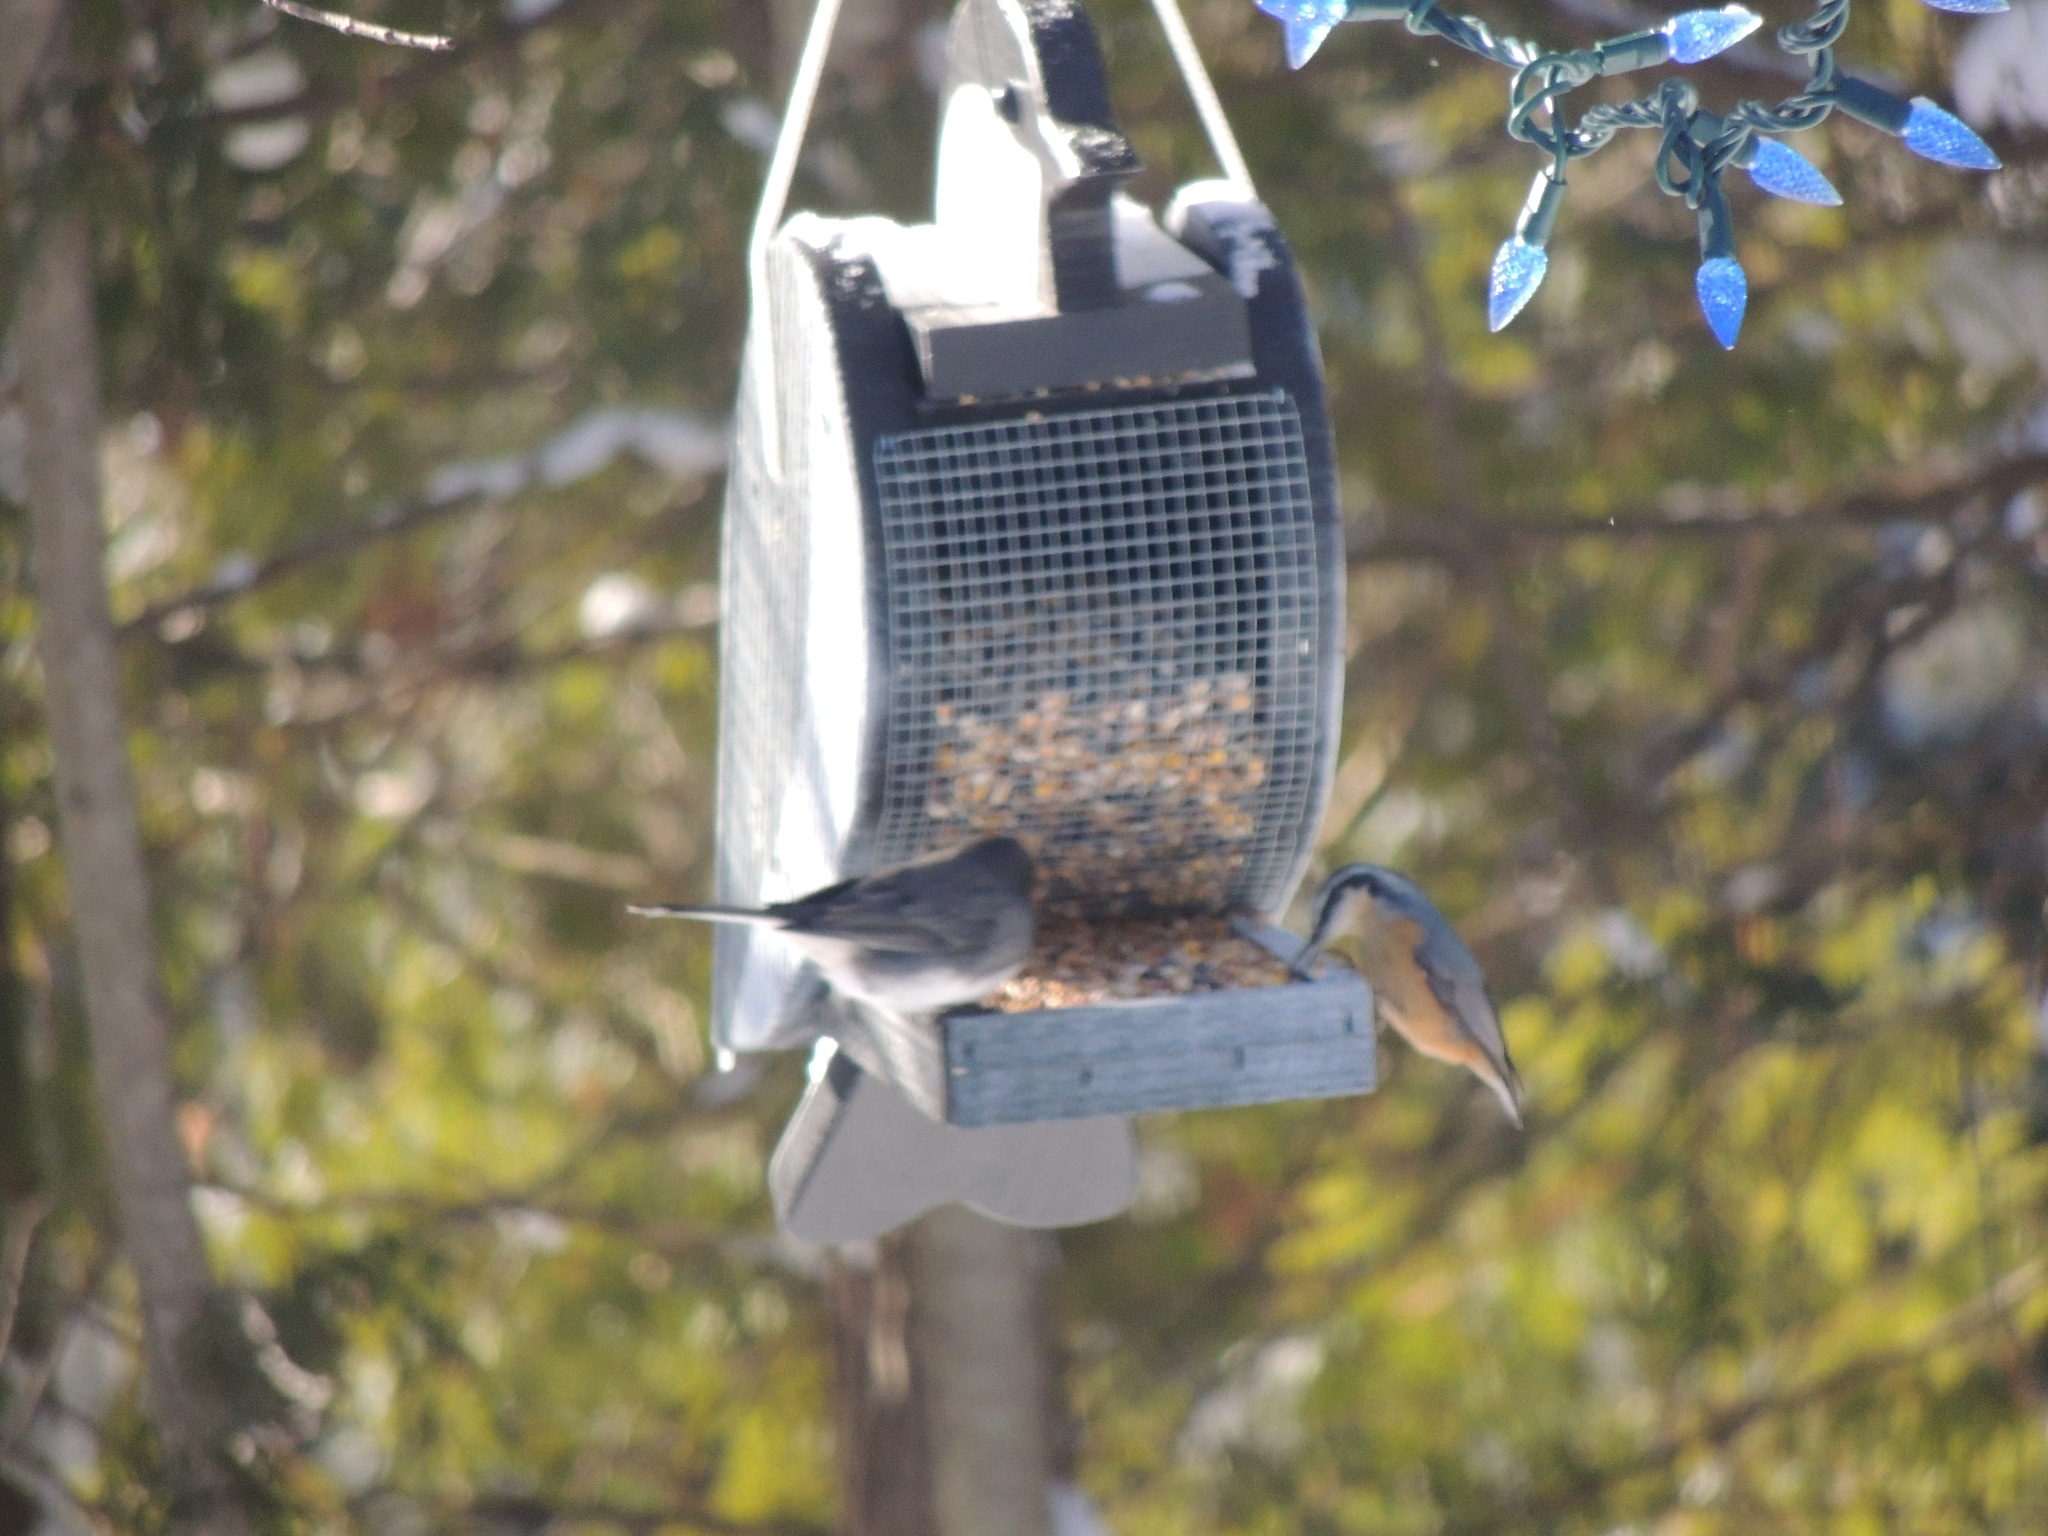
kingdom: Animalia
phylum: Chordata
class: Aves
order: Passeriformes
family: Sittidae
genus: Sitta
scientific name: Sitta canadensis
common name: Red-breasted nuthatch
